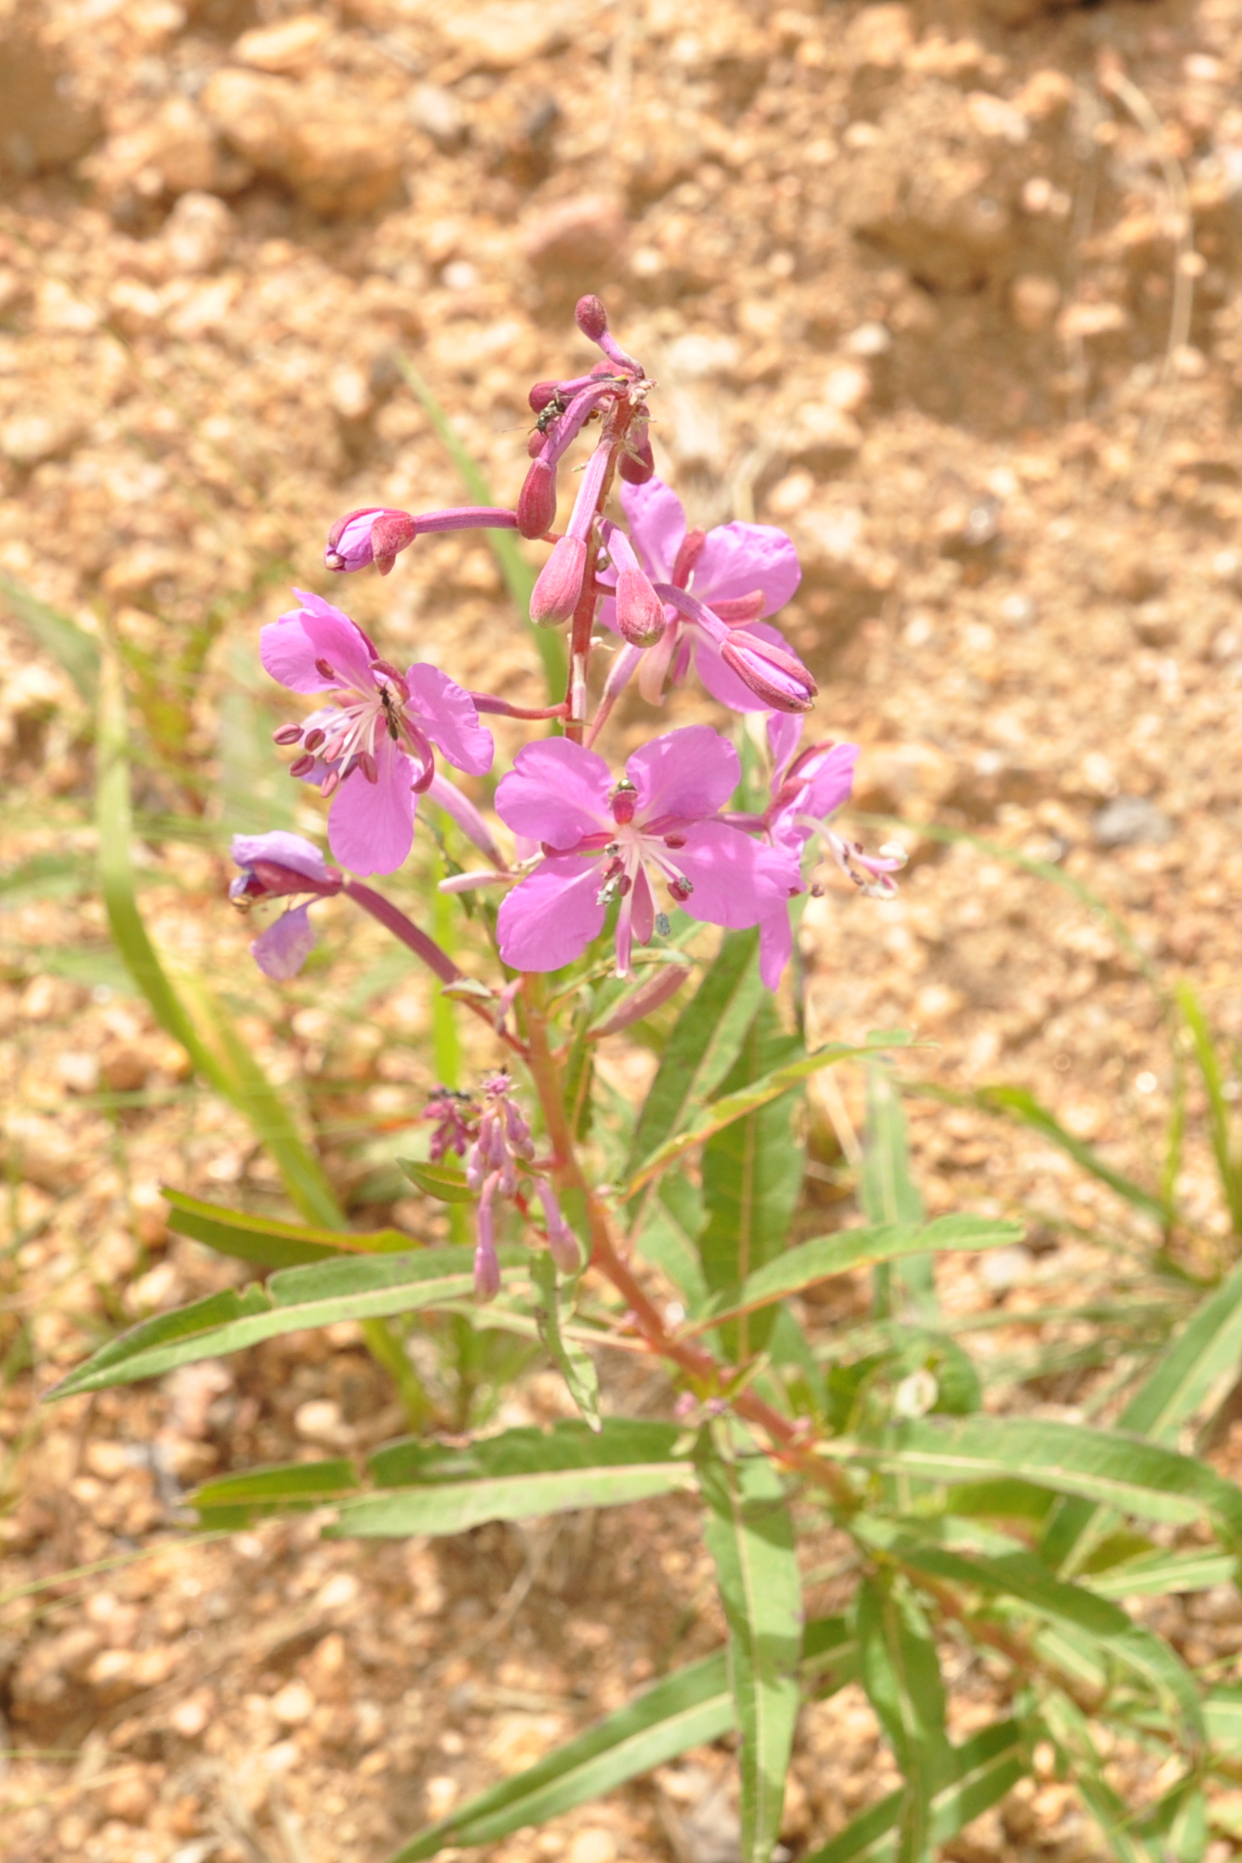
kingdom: Plantae
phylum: Tracheophyta
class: Magnoliopsida
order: Myrtales
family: Onagraceae
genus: Chamaenerion
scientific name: Chamaenerion angustifolium
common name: Fireweed
